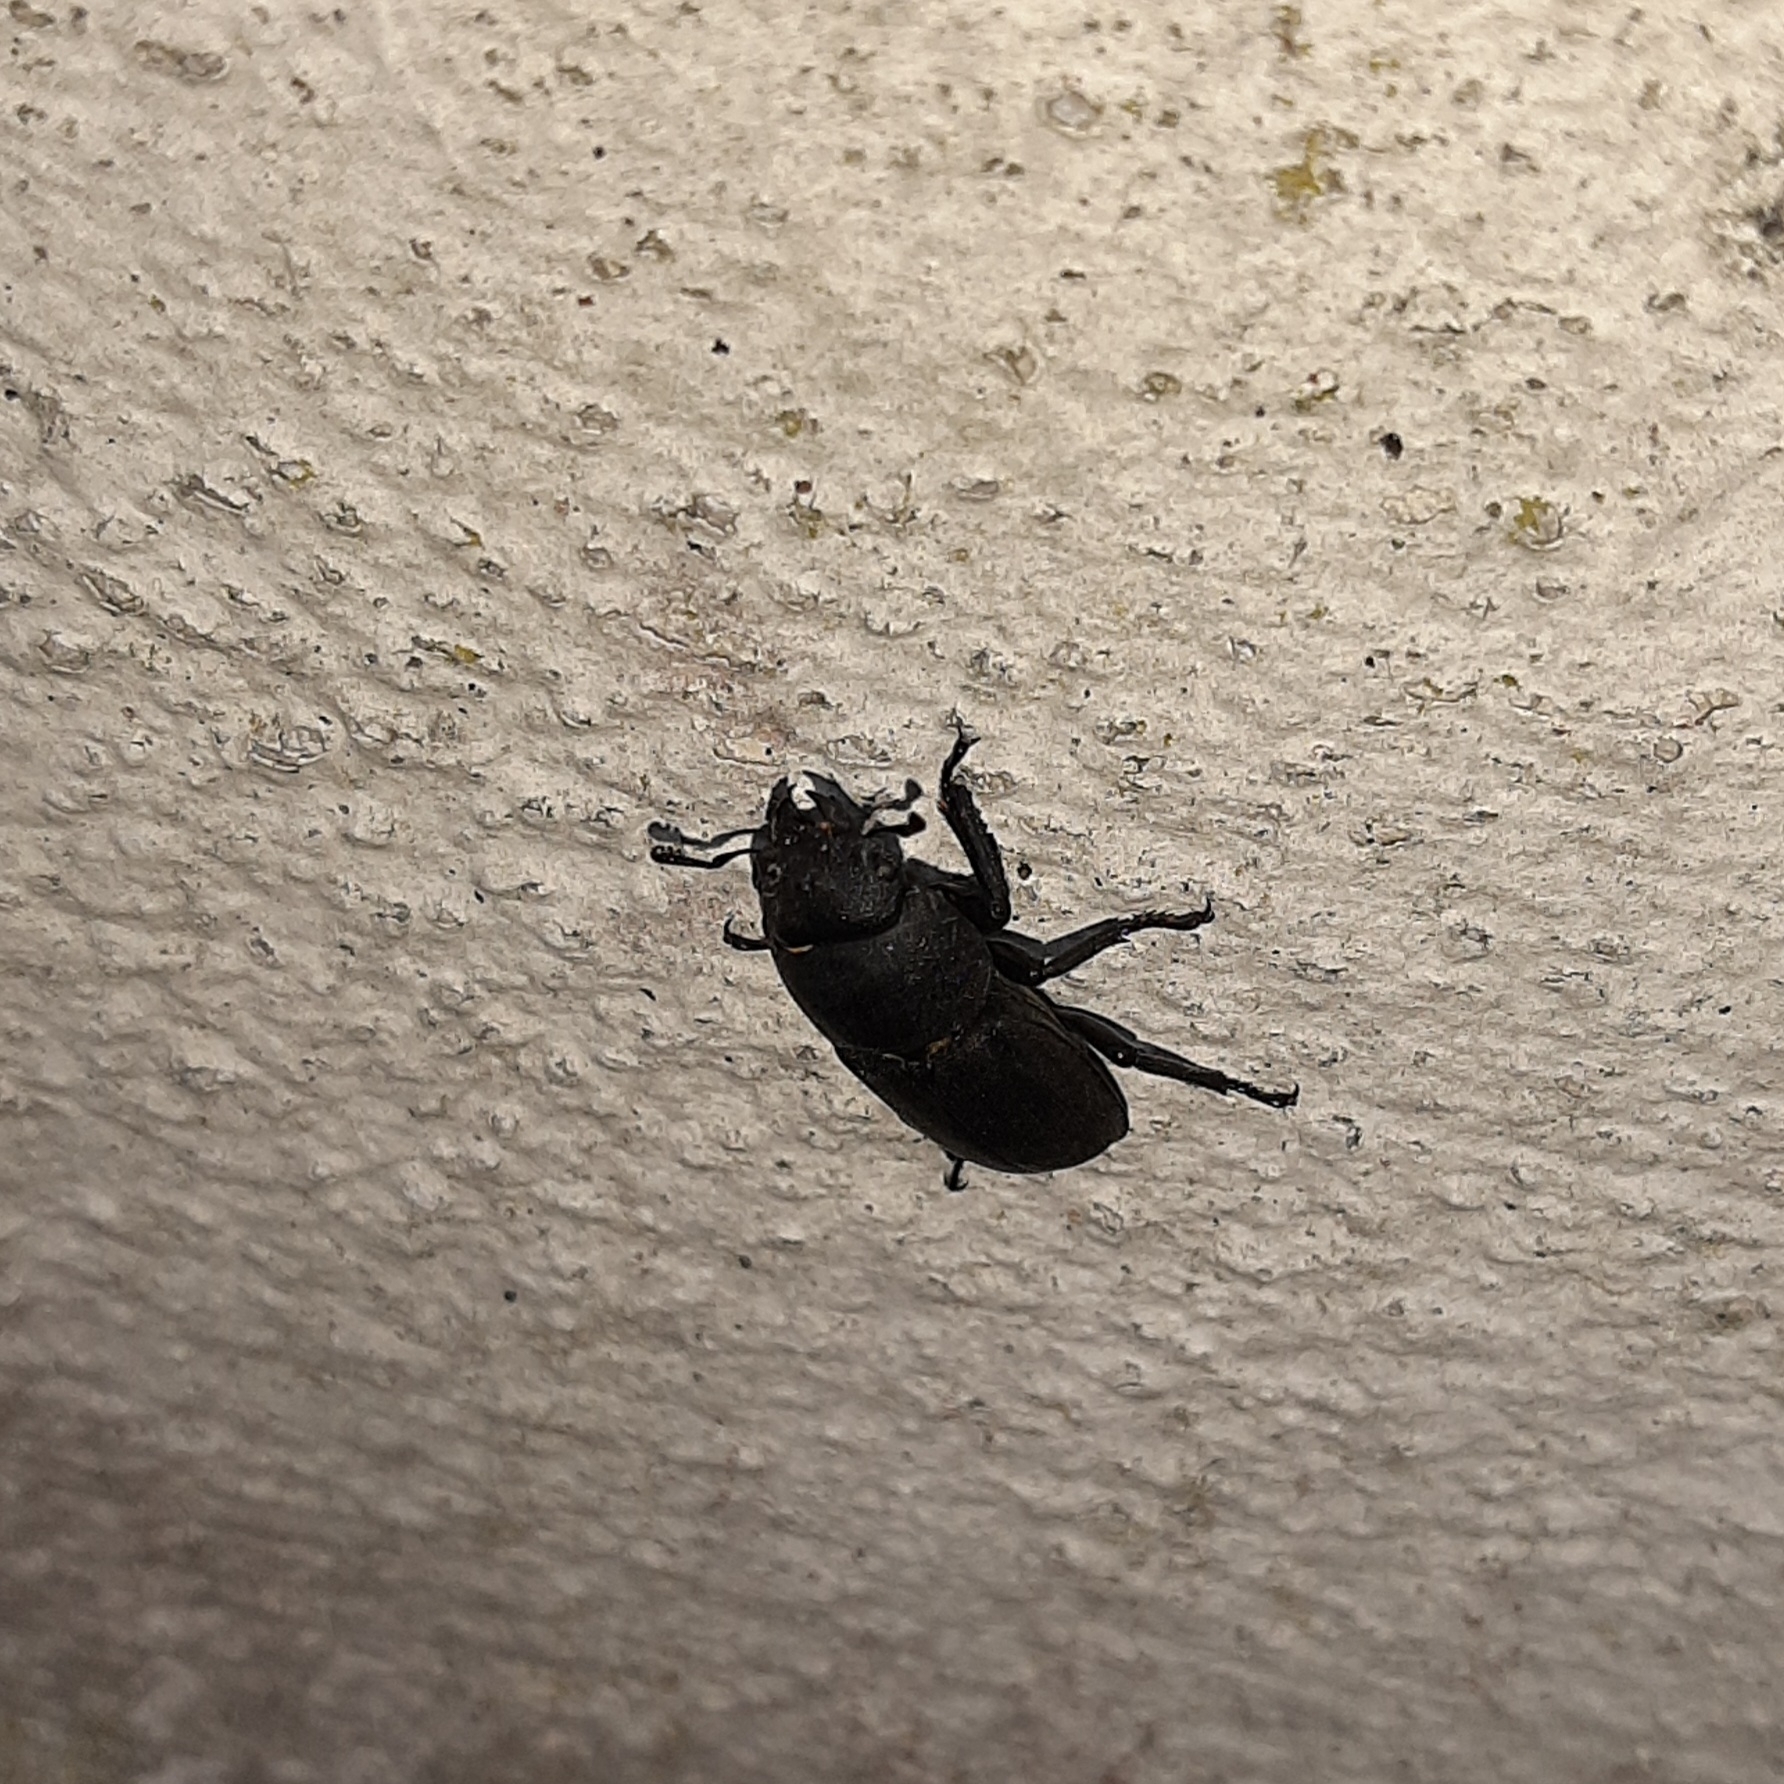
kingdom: Animalia
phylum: Arthropoda
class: Insecta
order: Coleoptera
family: Lucanidae
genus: Dorcus
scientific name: Dorcus parallelipipedus
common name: Lesser stag beetle
